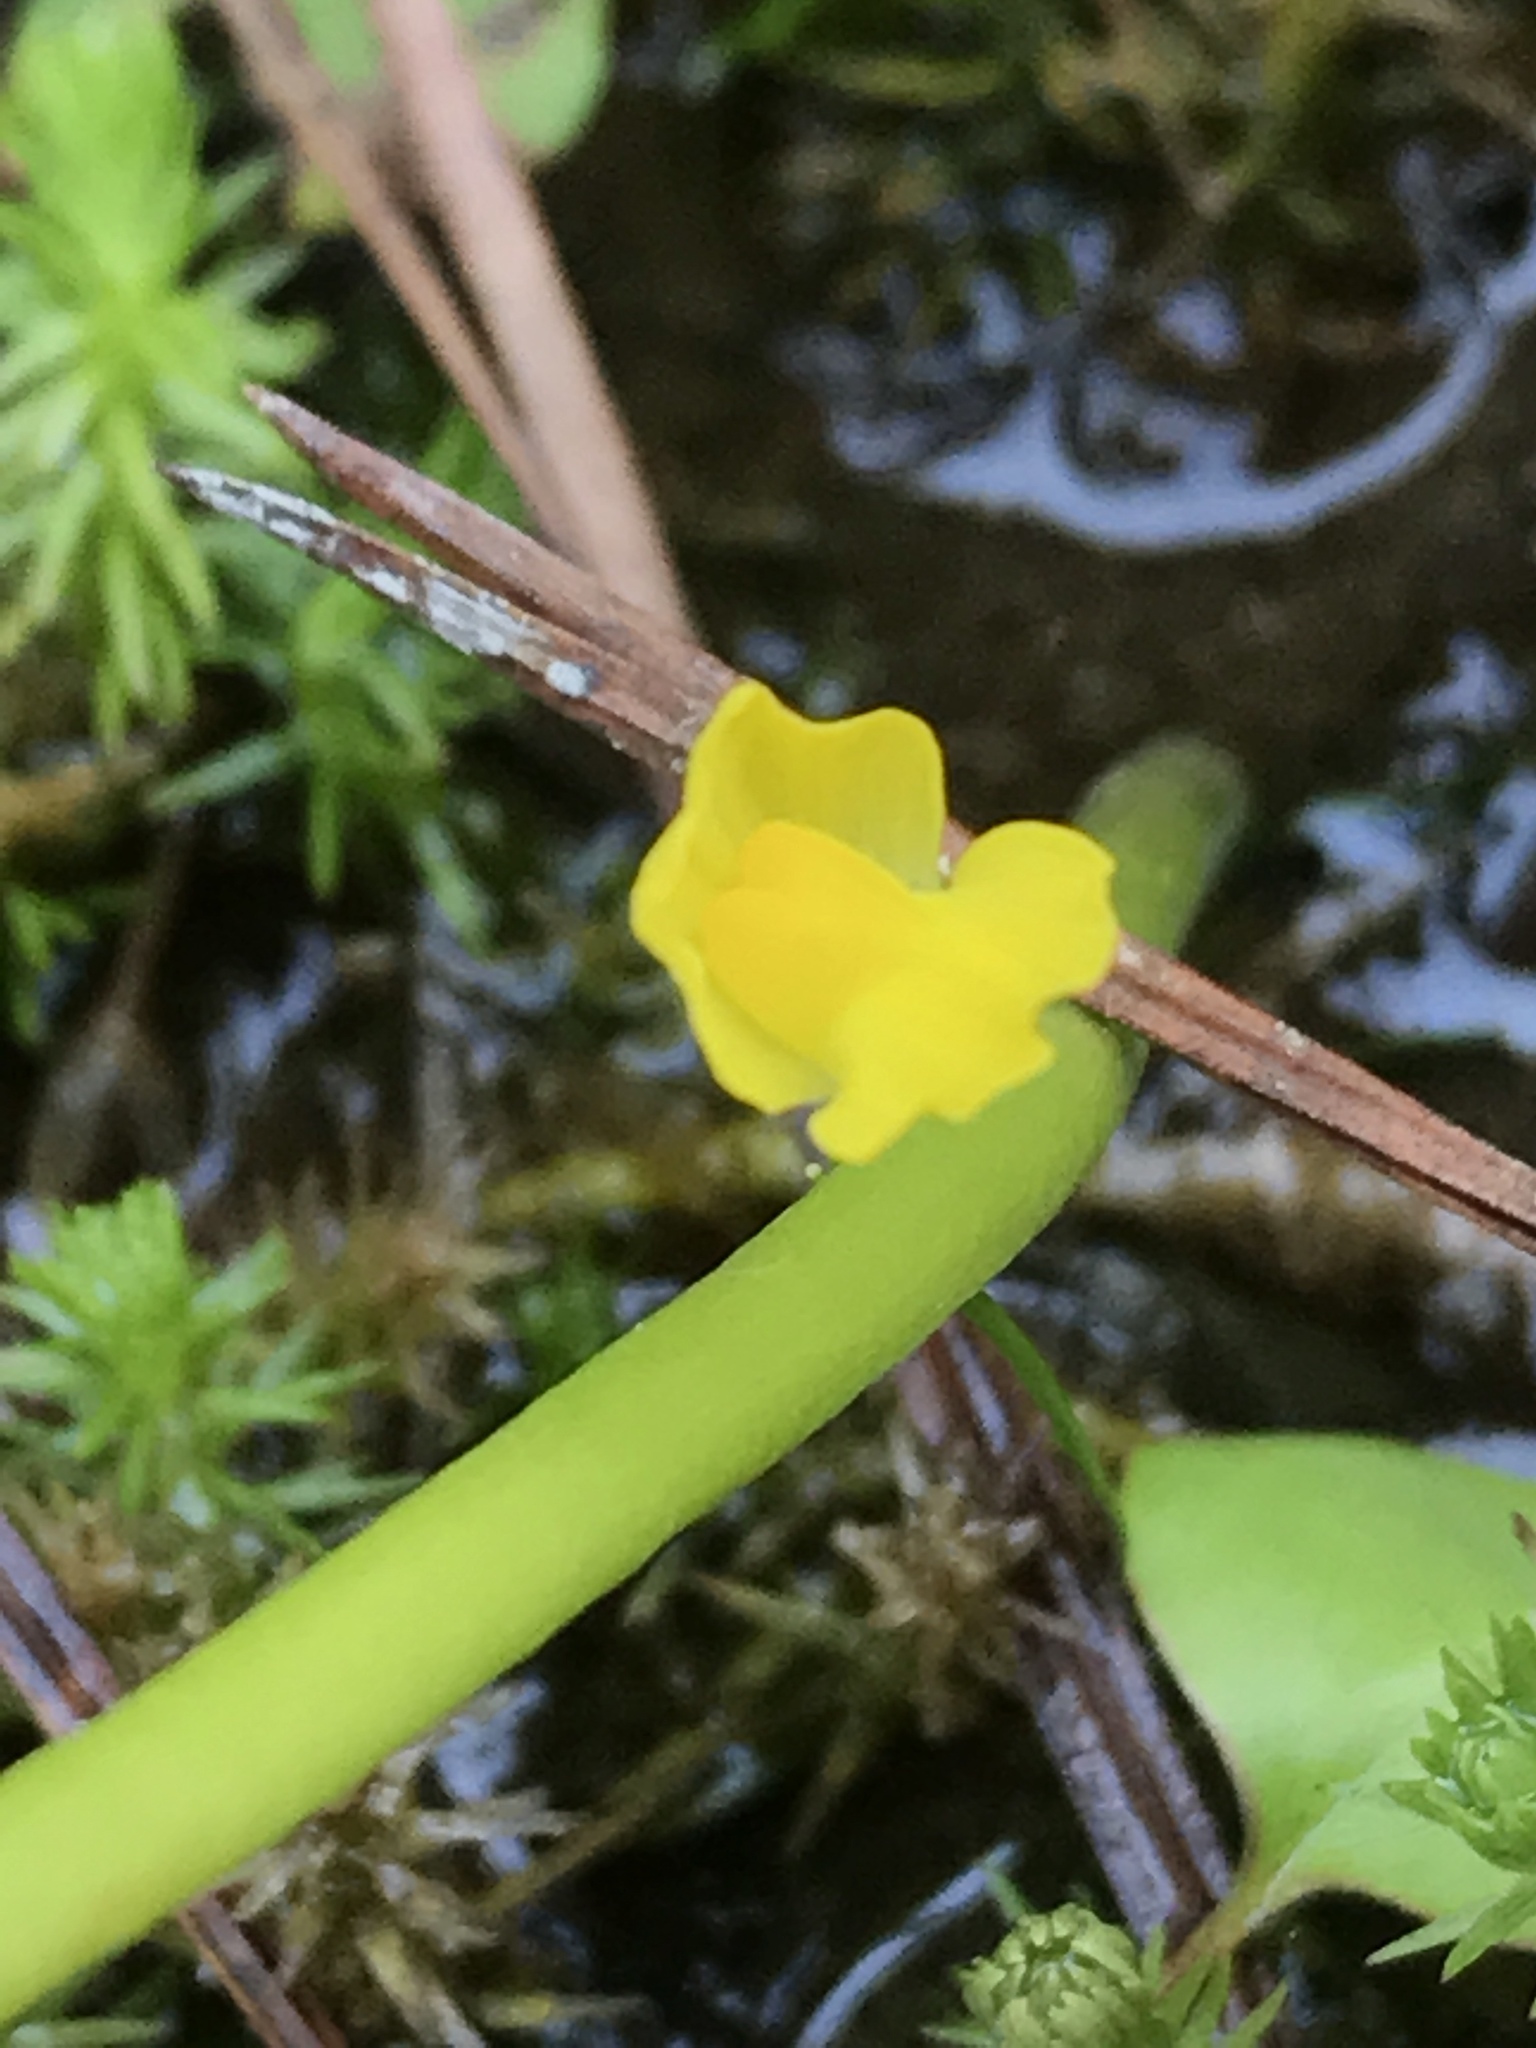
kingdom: Plantae
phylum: Tracheophyta
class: Magnoliopsida
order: Lamiales
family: Lentibulariaceae
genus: Utricularia
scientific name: Utricularia gibba
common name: Humped bladderwort
